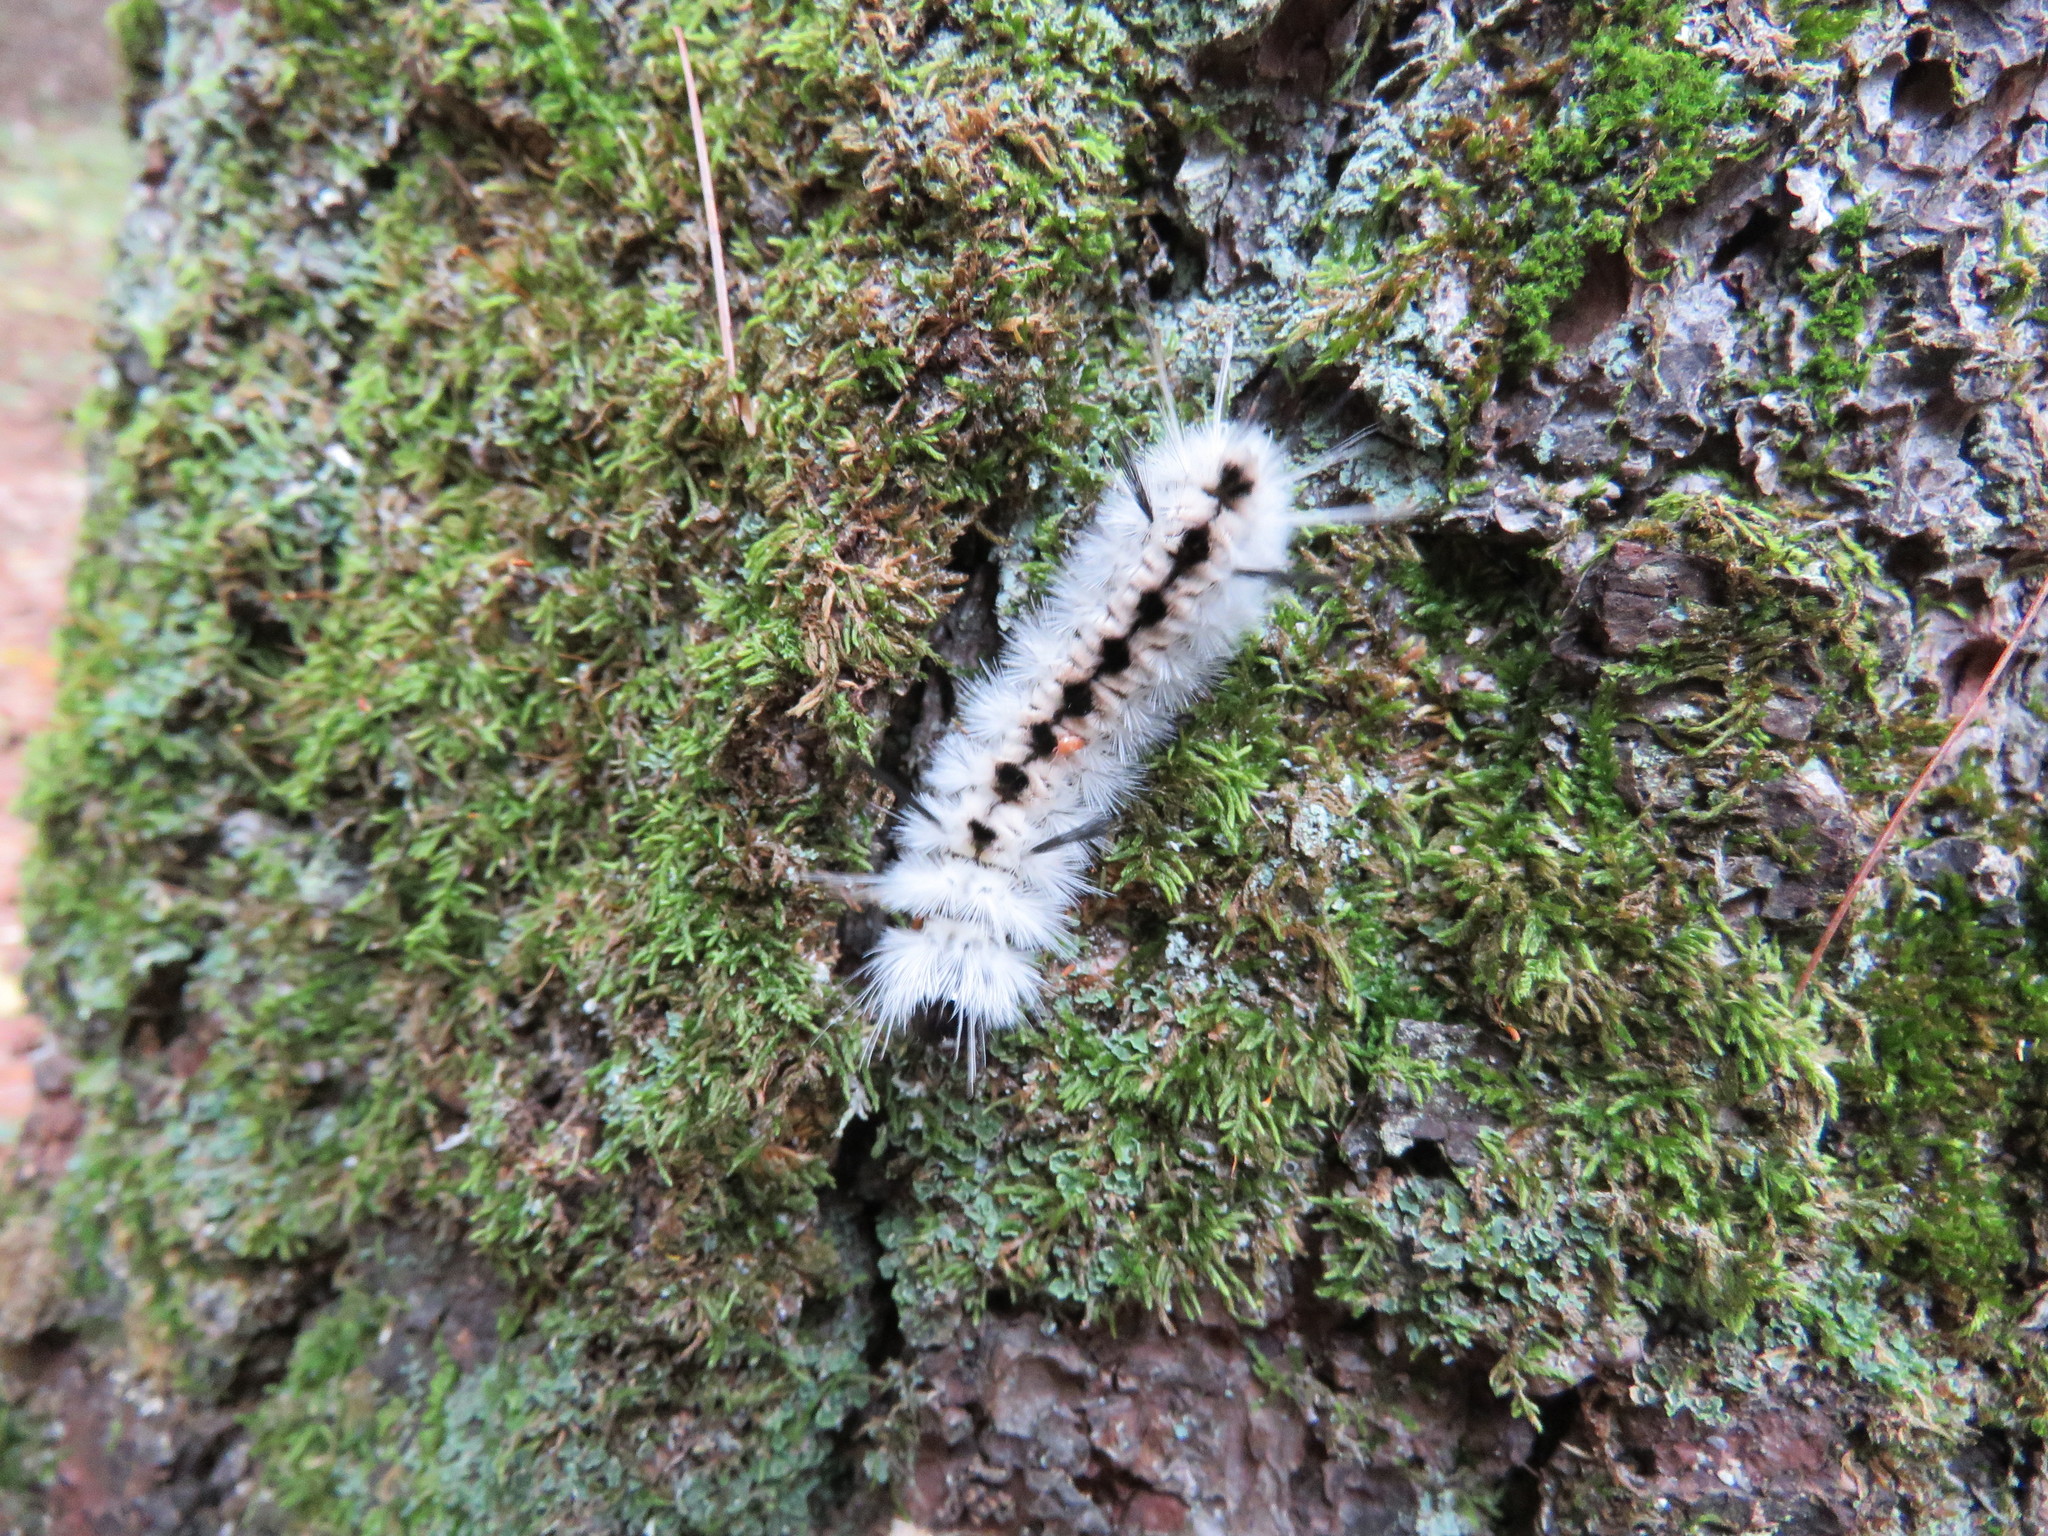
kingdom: Animalia
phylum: Arthropoda
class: Insecta
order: Lepidoptera
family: Erebidae
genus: Lophocampa
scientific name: Lophocampa caryae
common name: Hickory tussock moth
